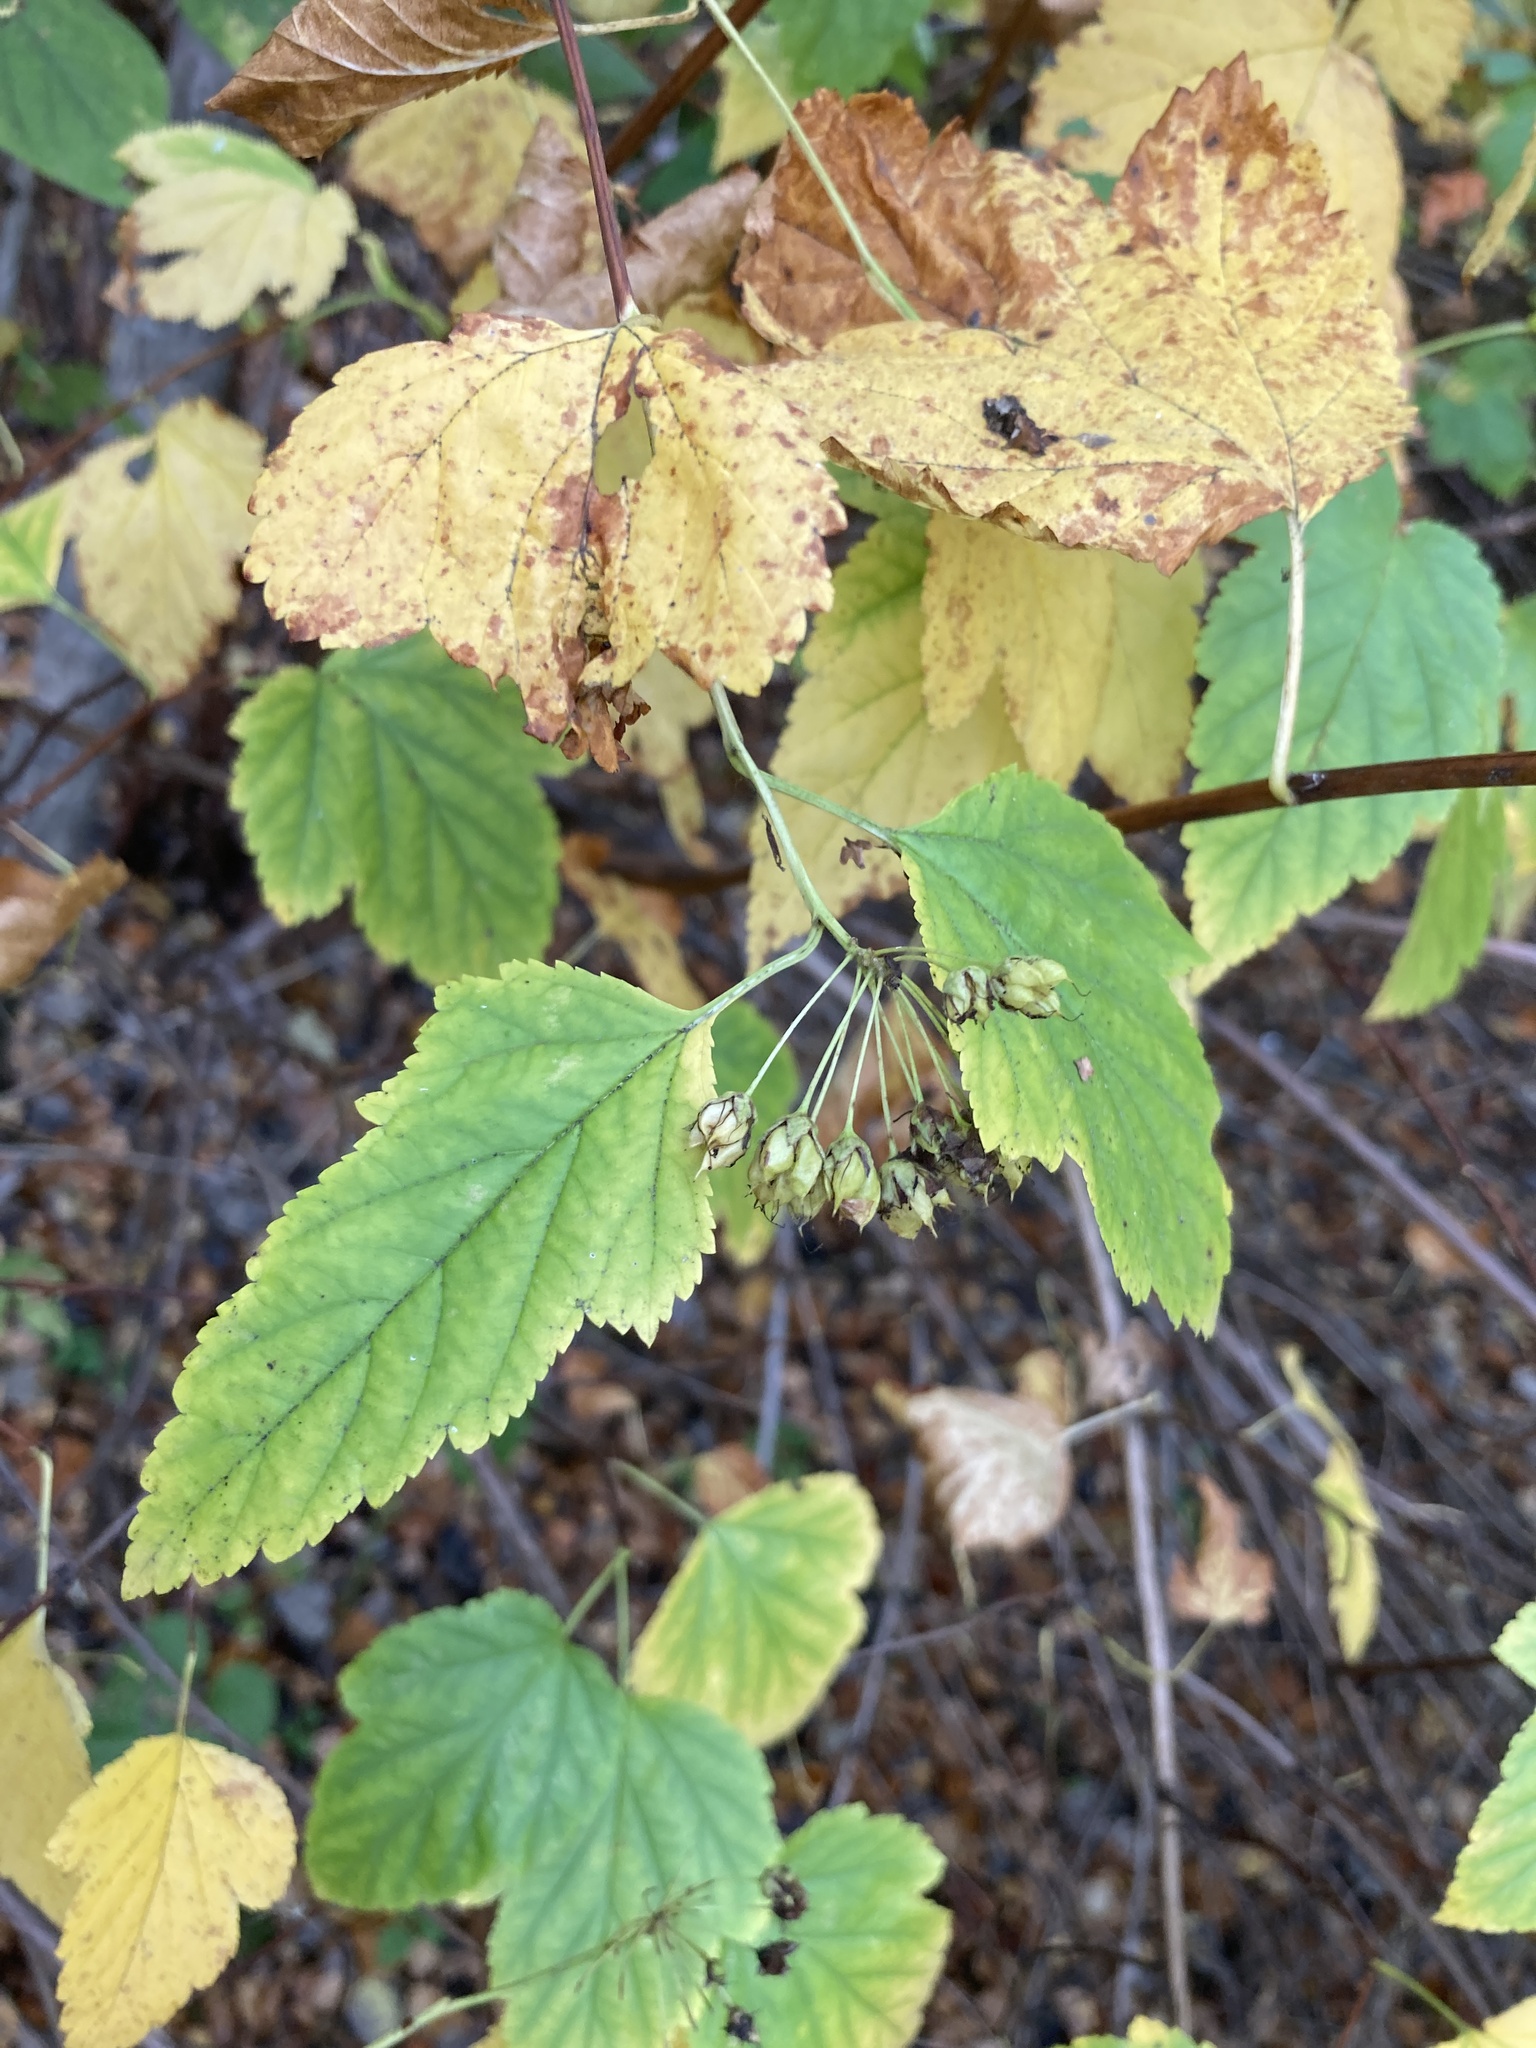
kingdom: Plantae
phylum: Tracheophyta
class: Magnoliopsida
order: Rosales
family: Rosaceae
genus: Physocarpus
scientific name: Physocarpus opulifolius
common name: Ninebark
